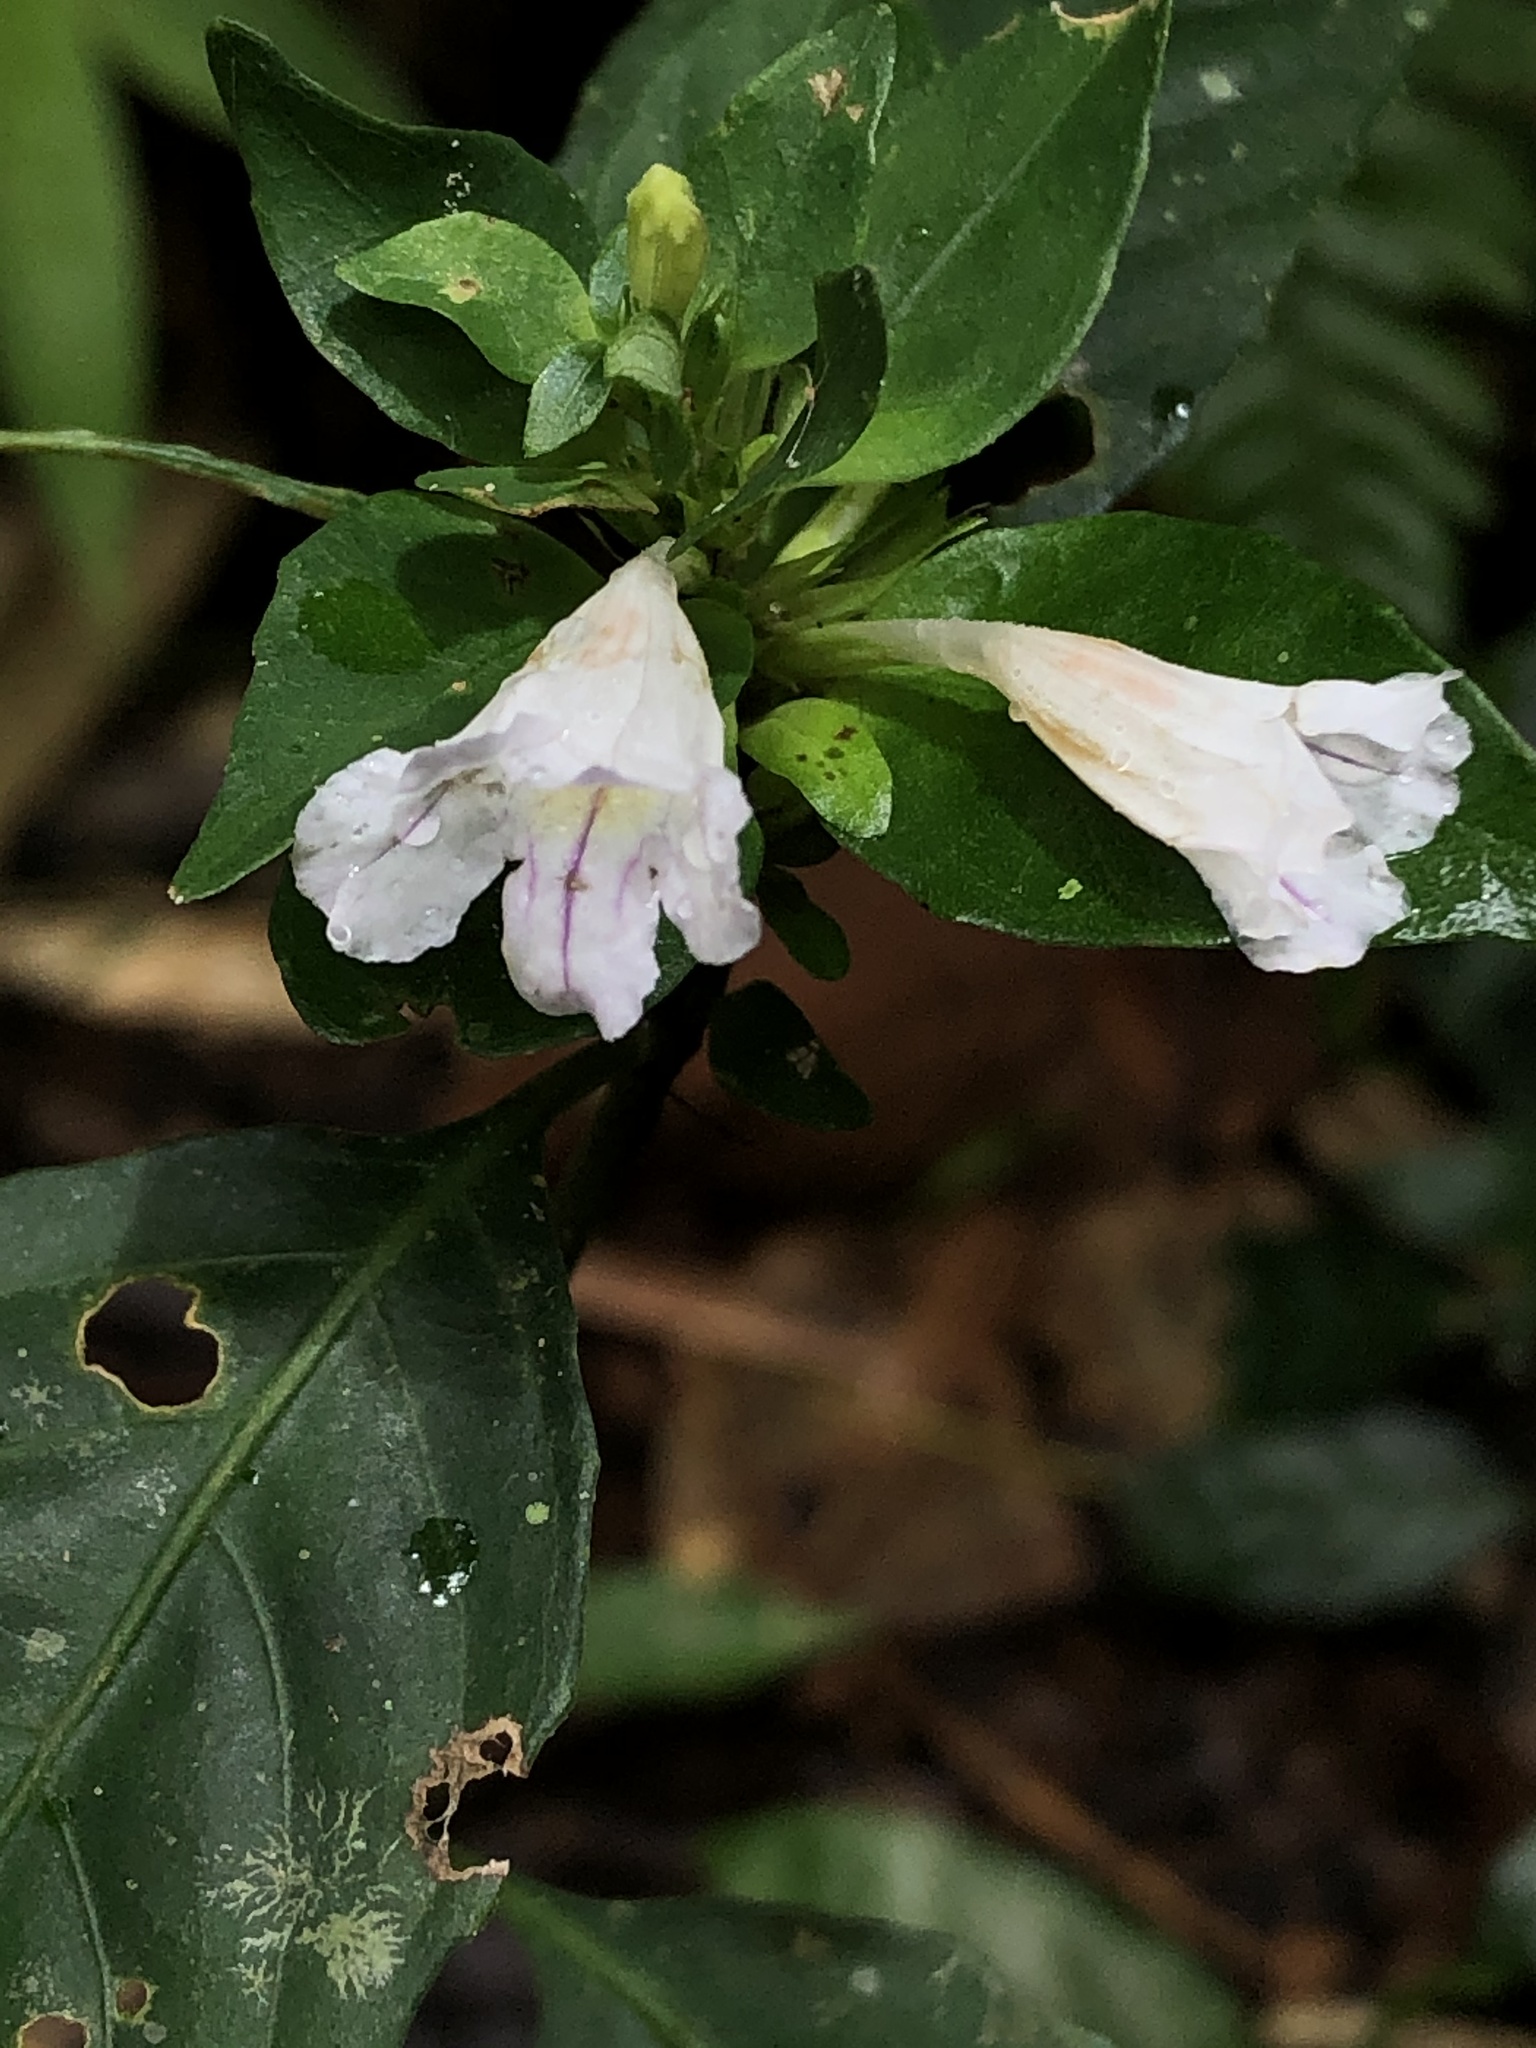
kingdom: Plantae
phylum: Tracheophyta
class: Magnoliopsida
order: Lamiales
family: Acanthaceae
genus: Ruellia
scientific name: Ruellia terminalis
